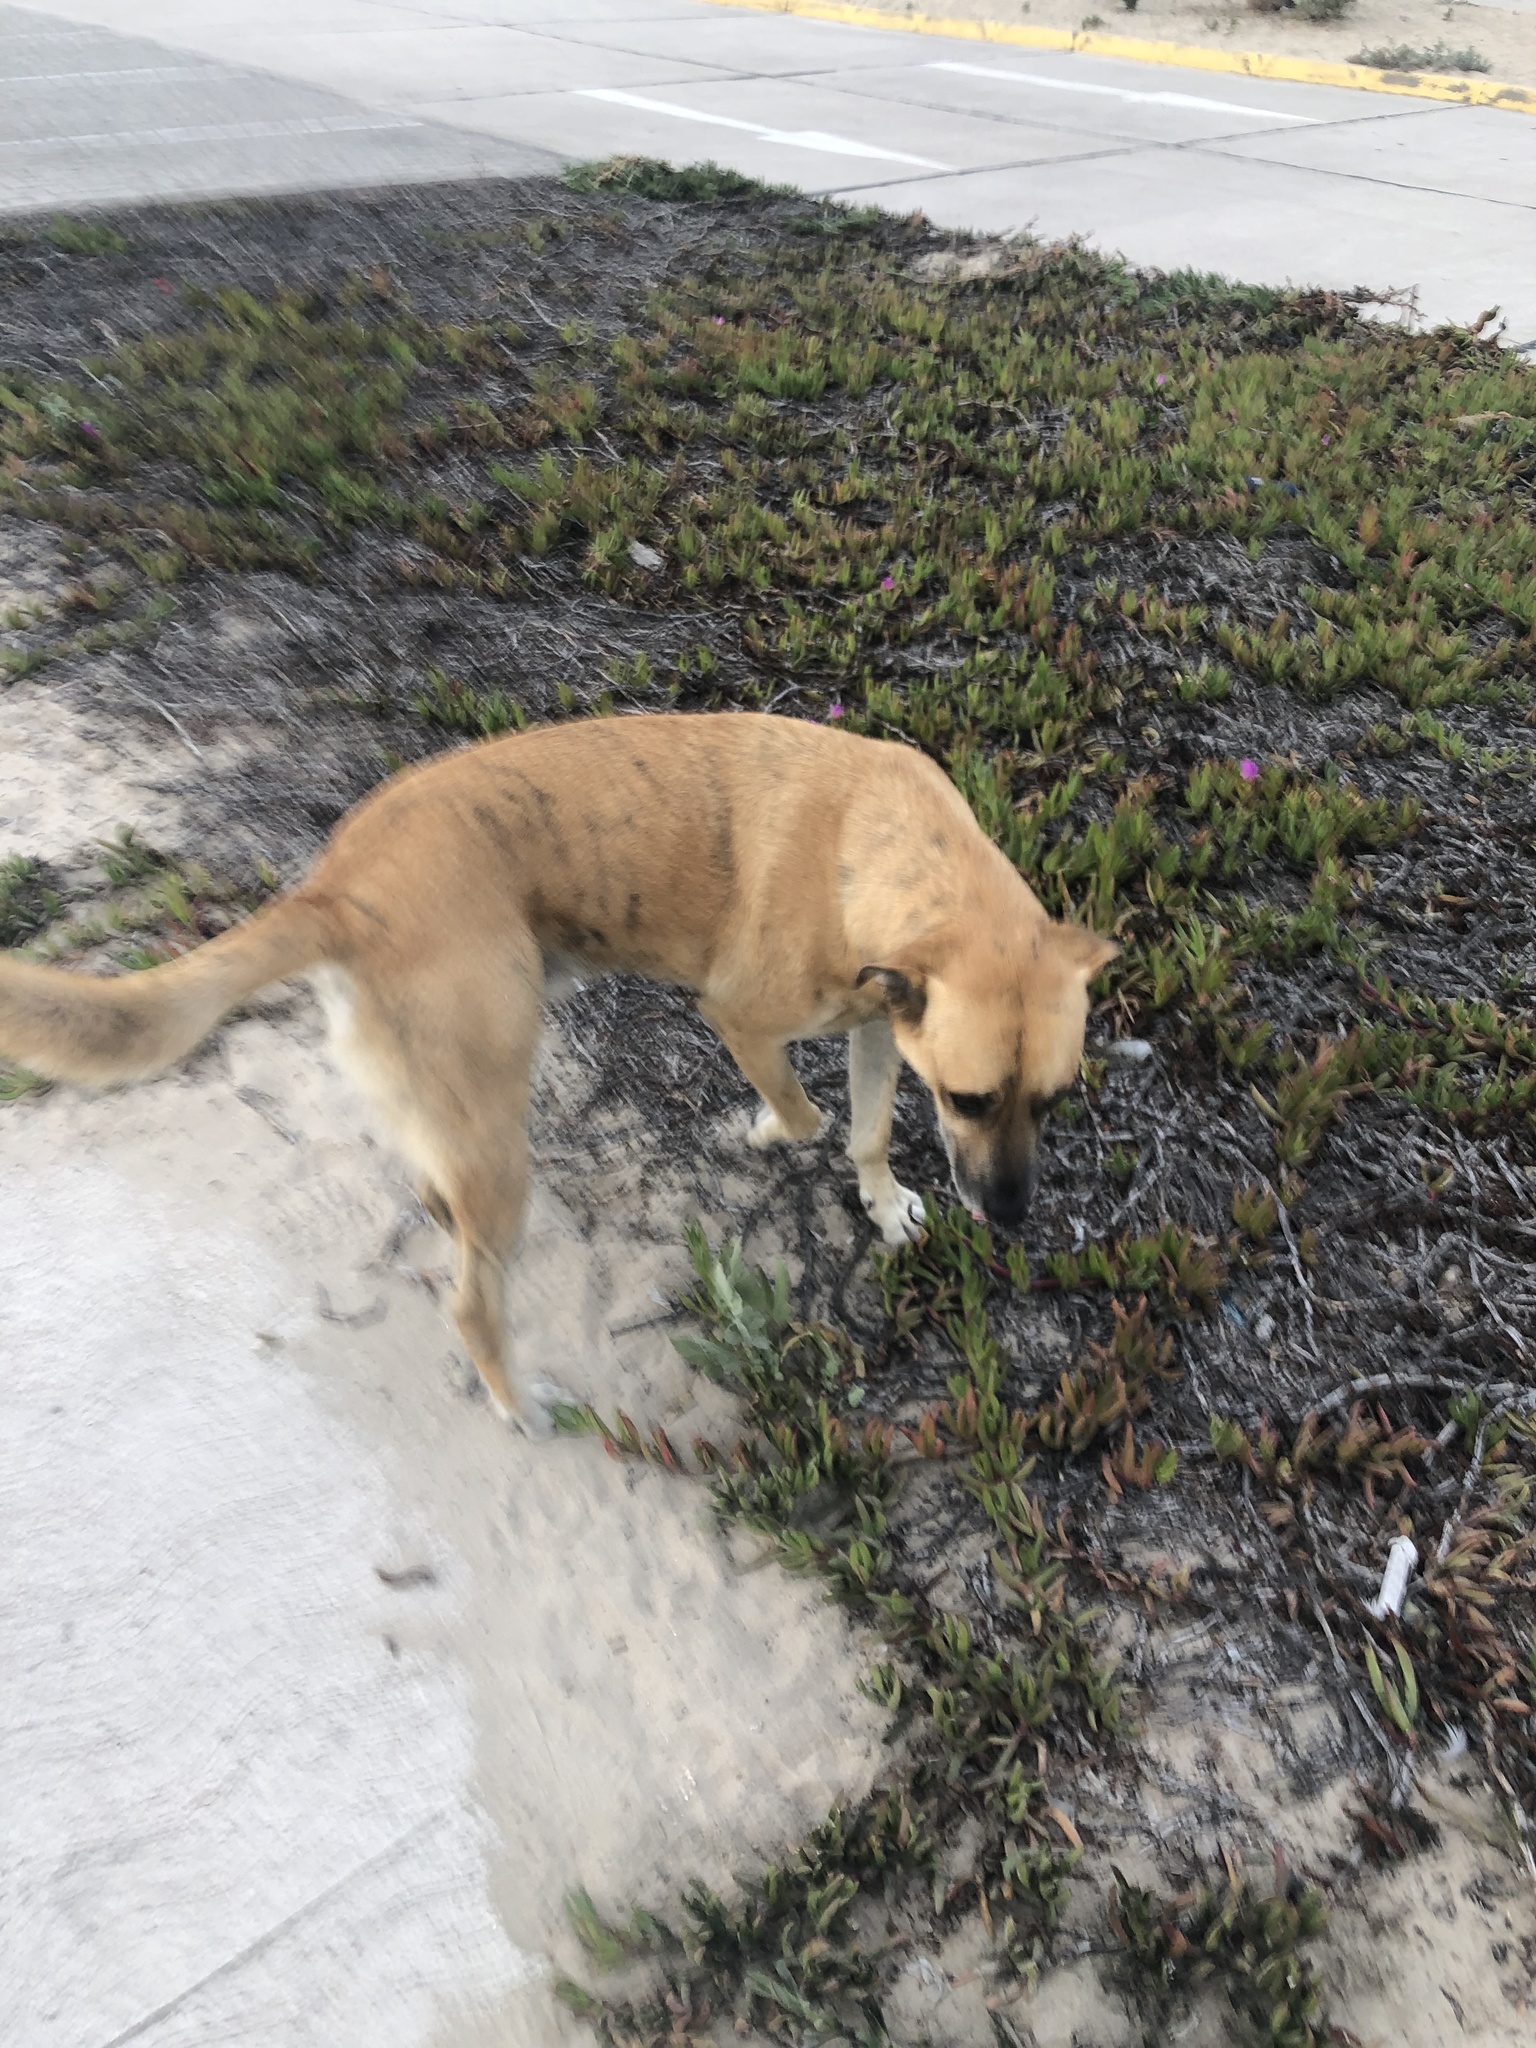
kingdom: Animalia
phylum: Chordata
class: Mammalia
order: Carnivora
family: Canidae
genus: Canis
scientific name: Canis lupus
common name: Gray wolf
